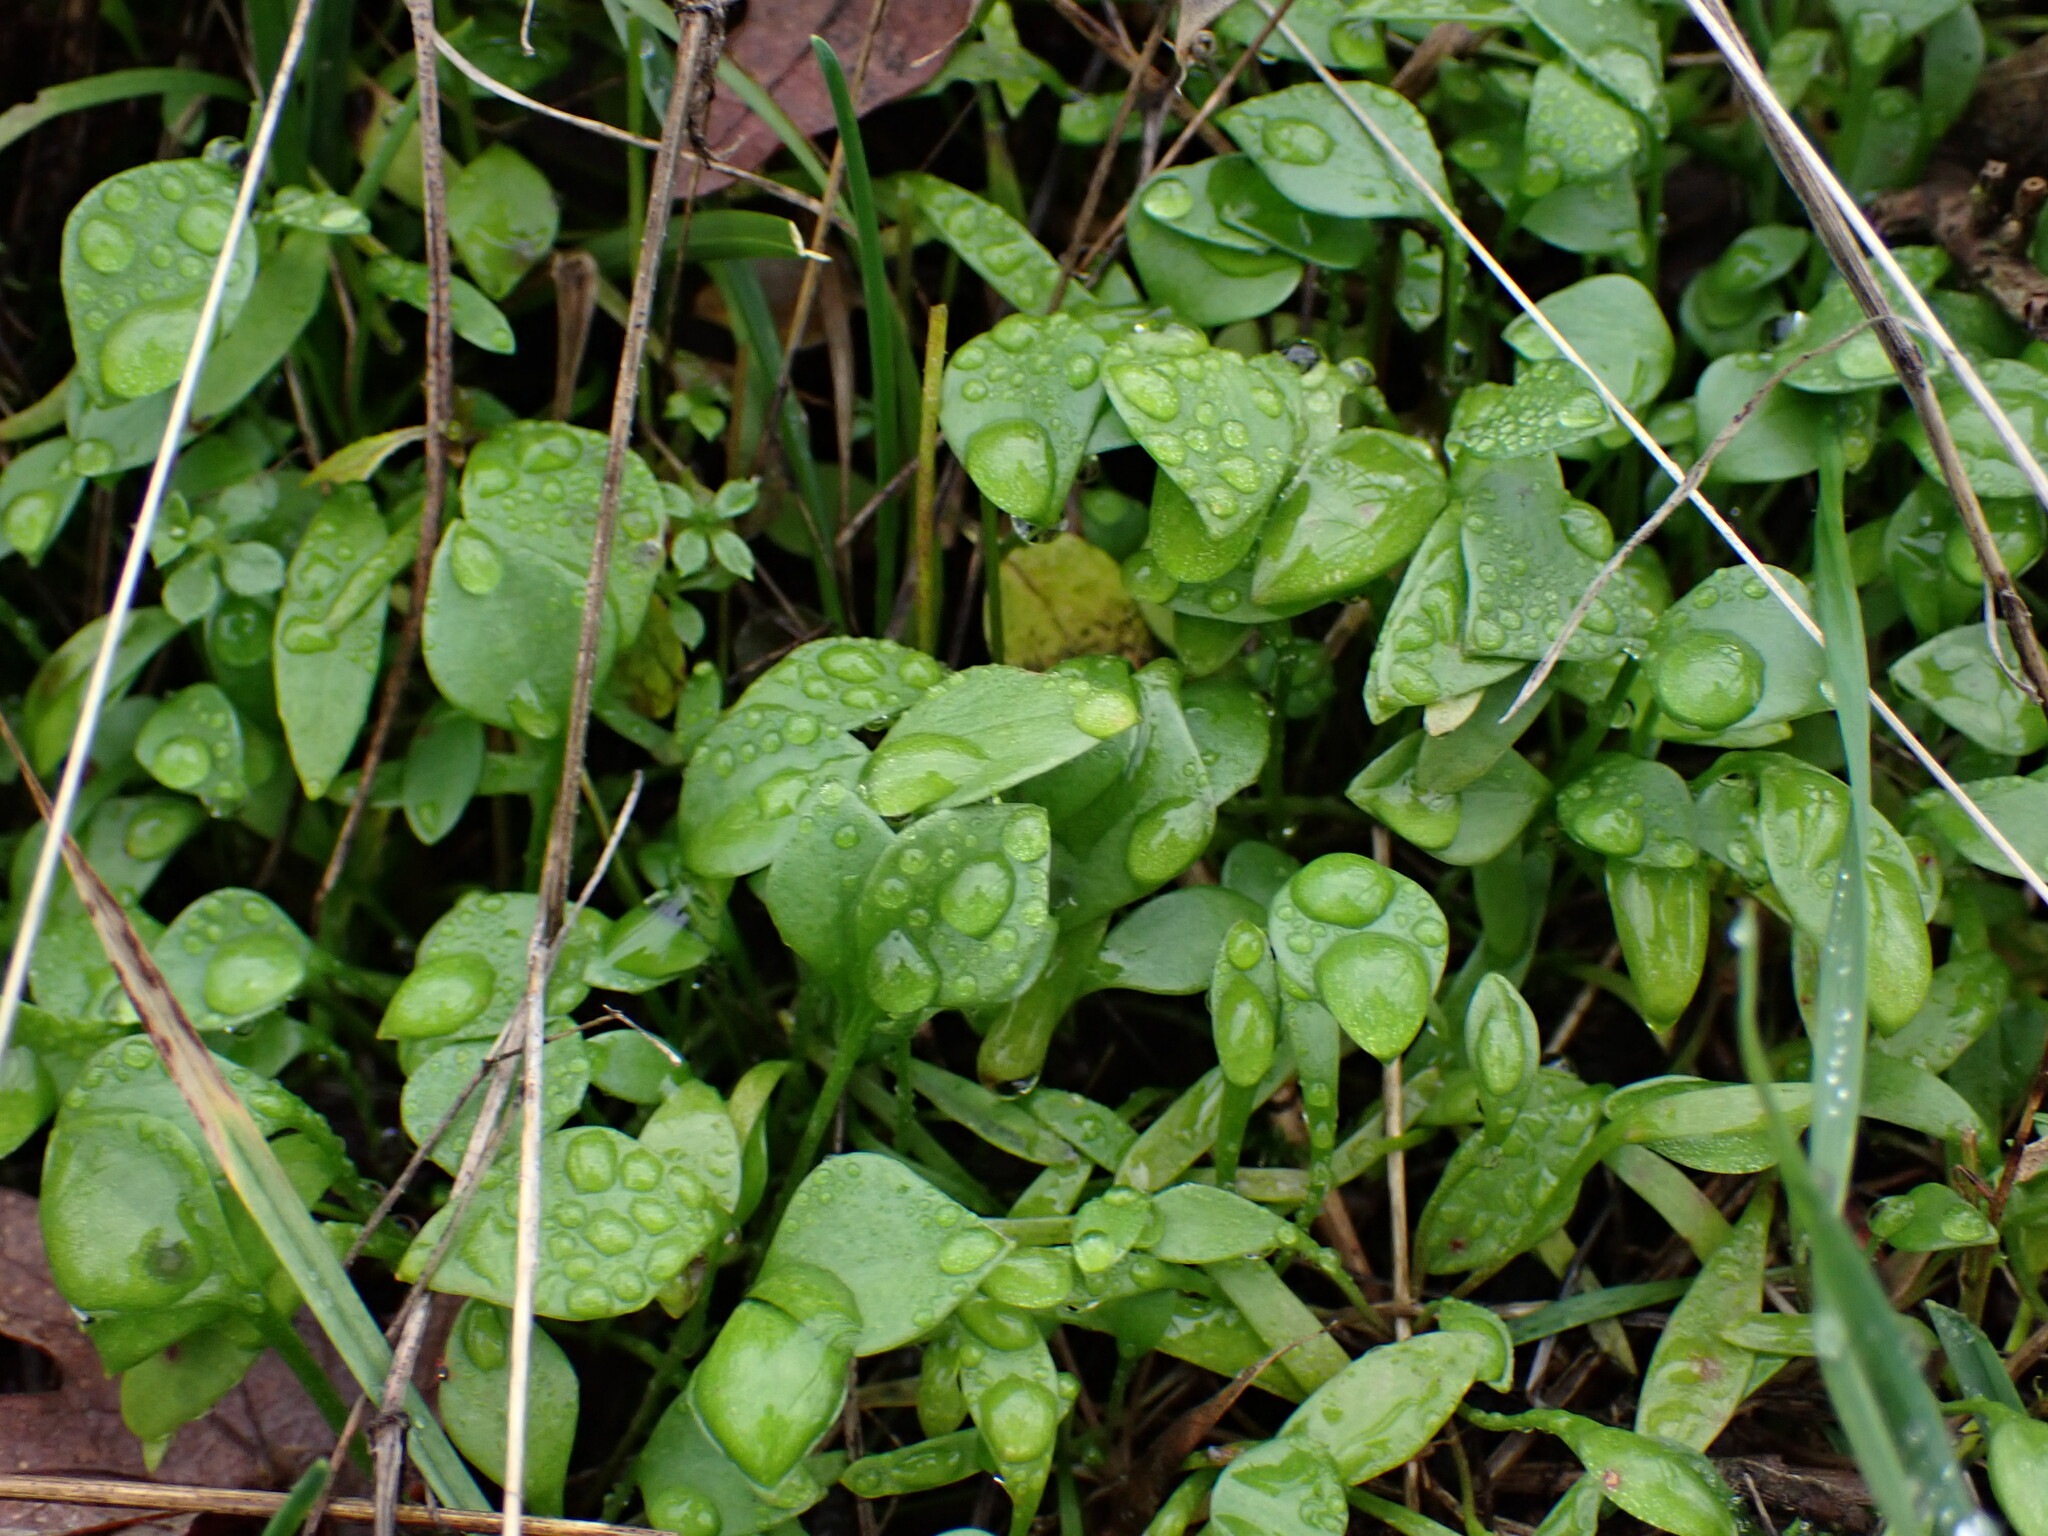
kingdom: Plantae
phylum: Tracheophyta
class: Magnoliopsida
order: Caryophyllales
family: Montiaceae
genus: Claytonia
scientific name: Claytonia perfoliata
